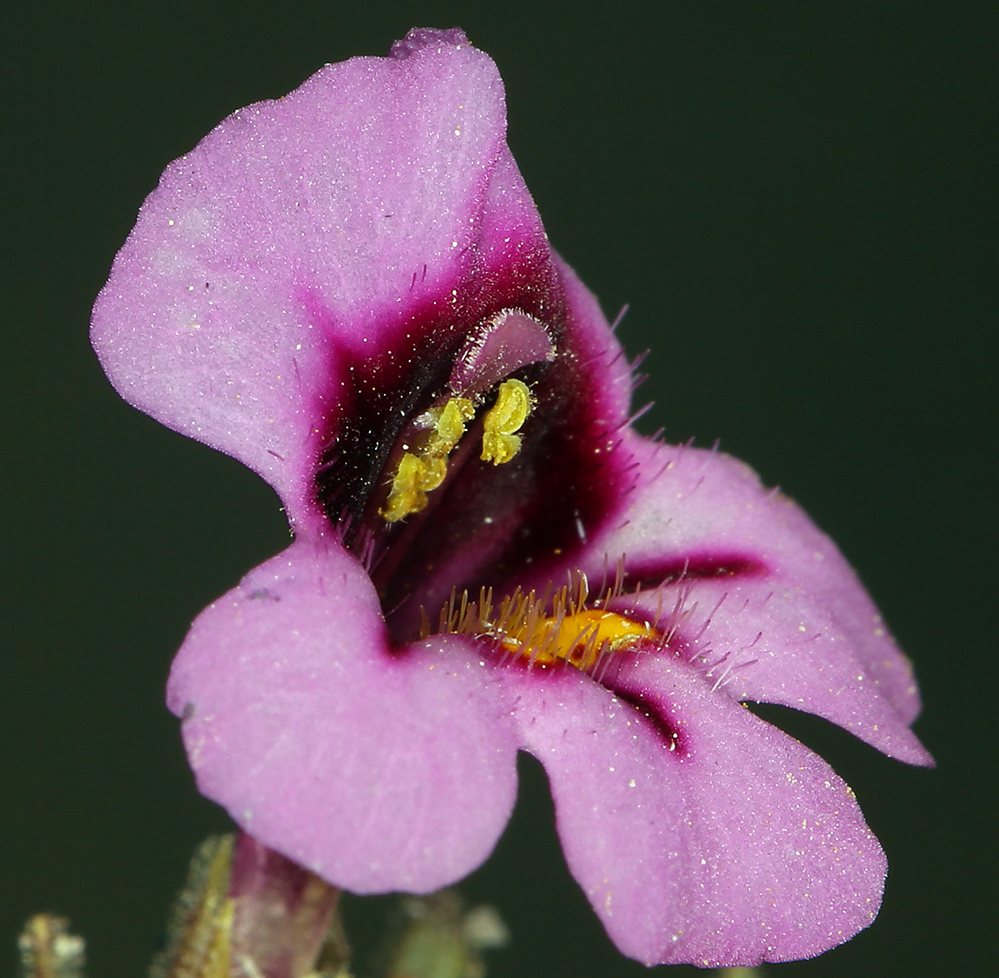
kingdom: Plantae
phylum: Tracheophyta
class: Magnoliopsida
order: Lamiales
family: Phrymaceae
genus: Diplacus
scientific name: Diplacus mephiticus
